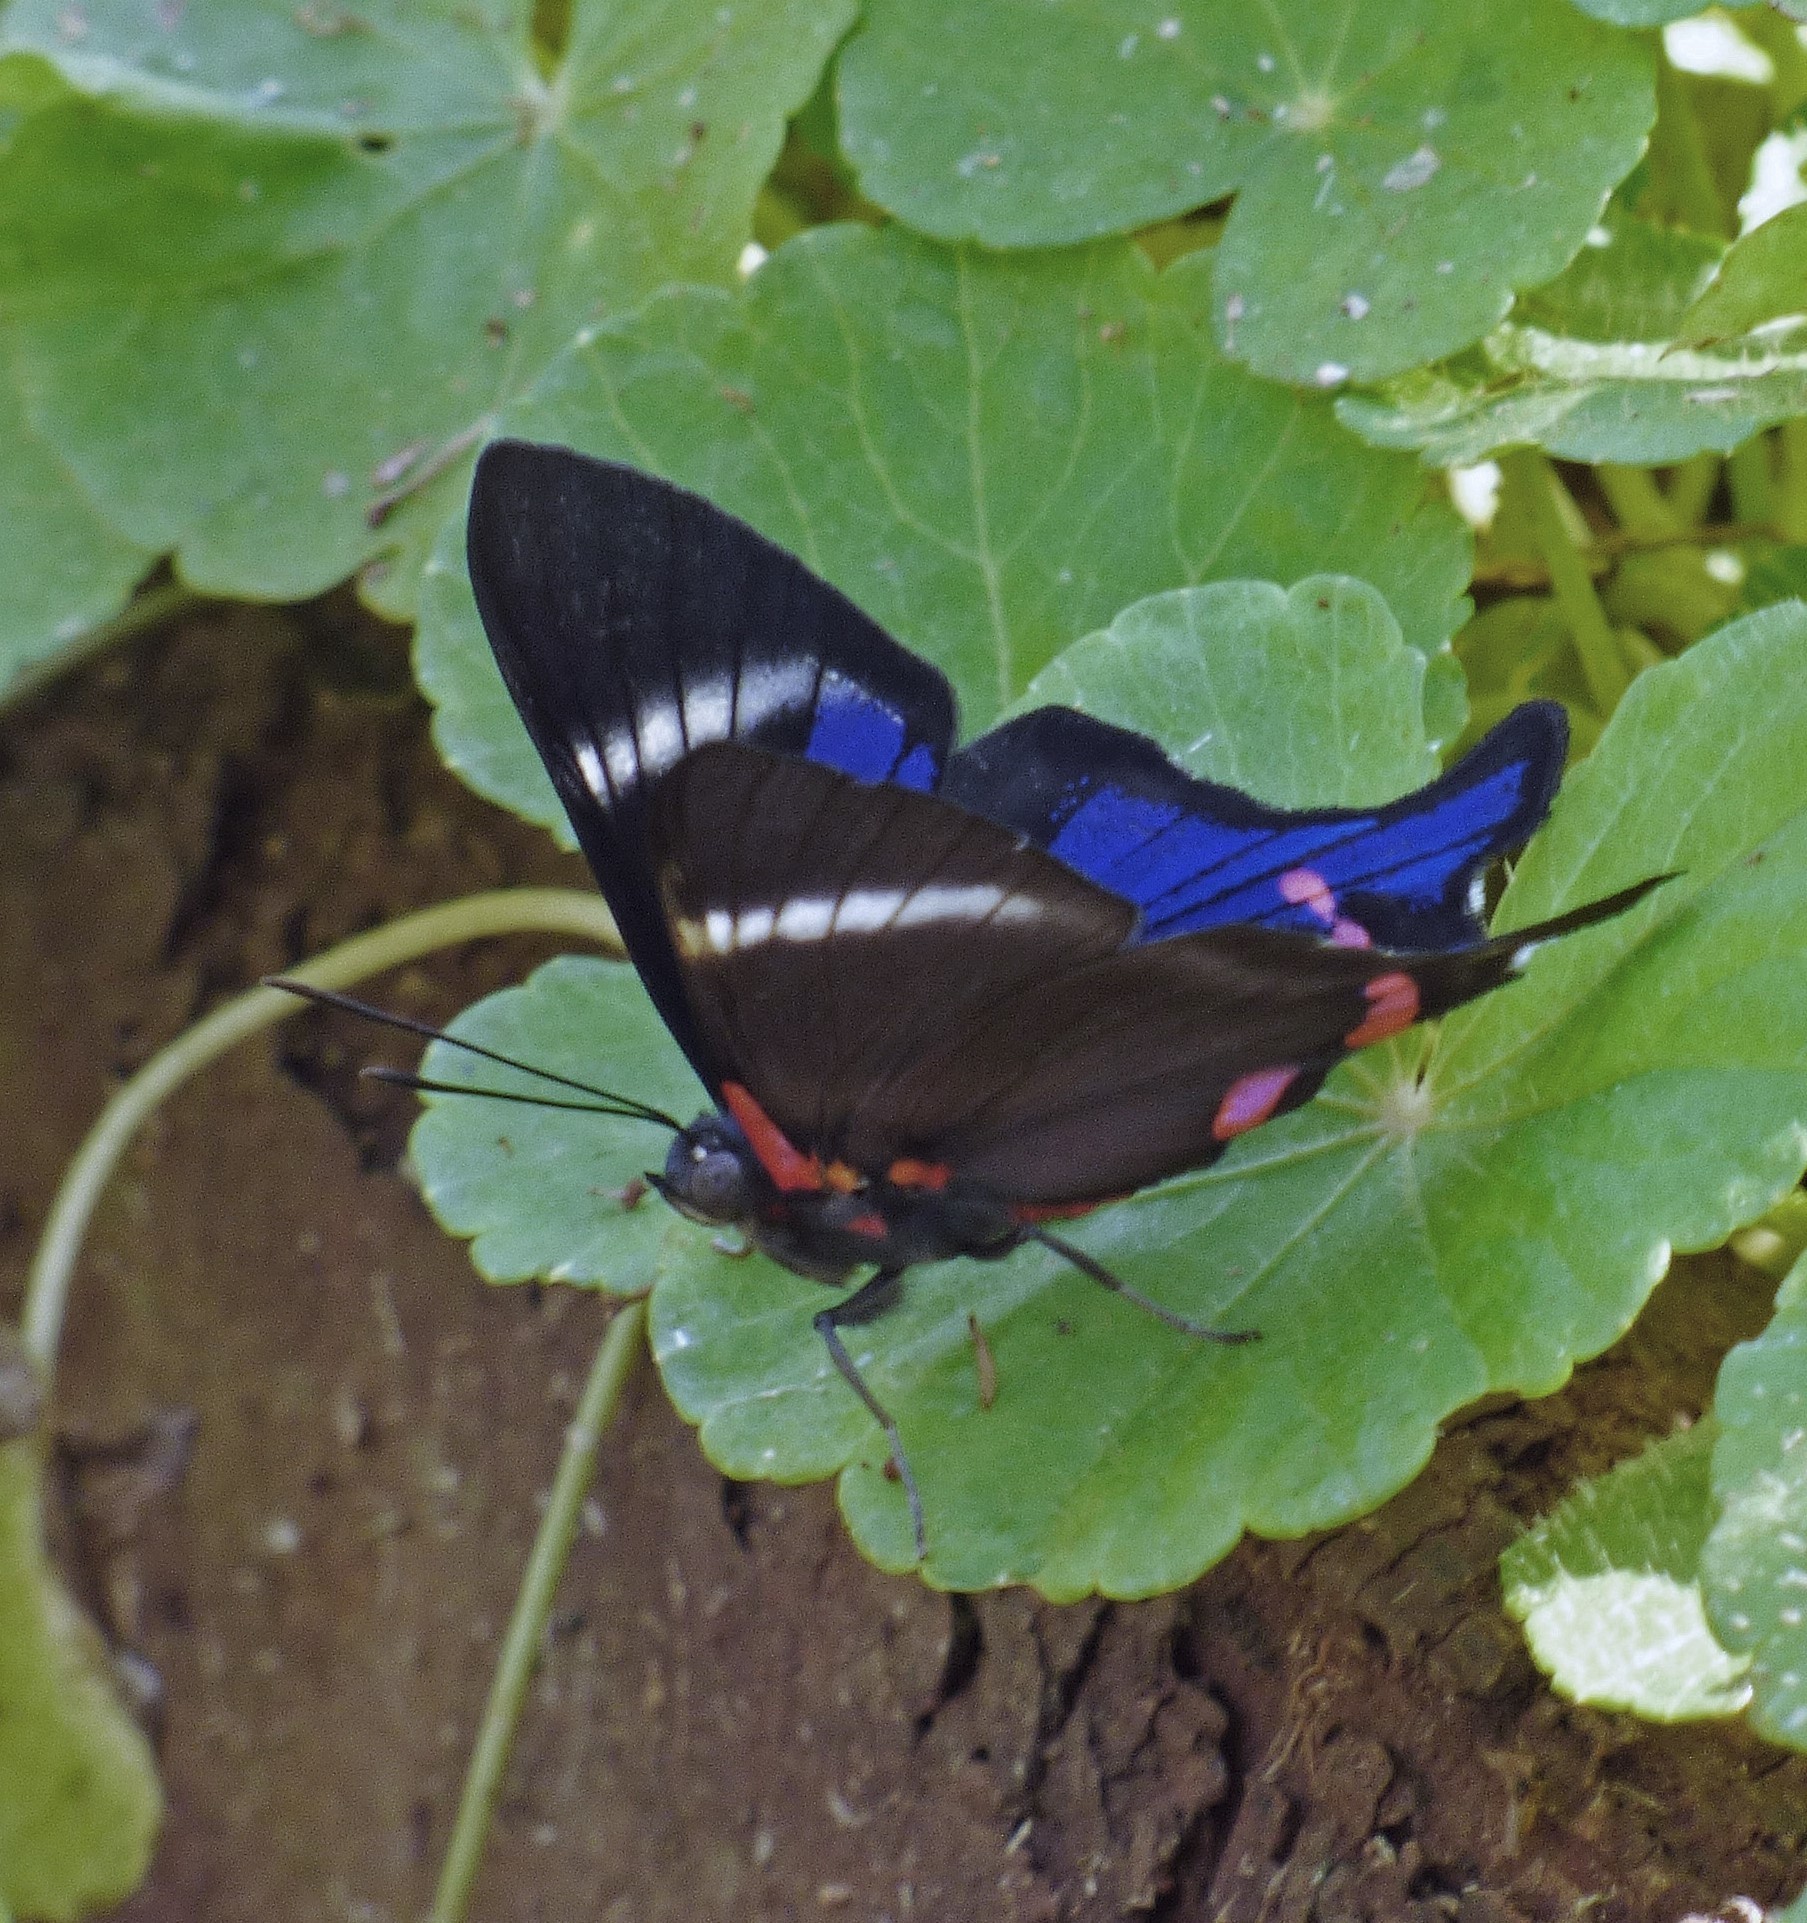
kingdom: Animalia
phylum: Arthropoda
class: Insecta
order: Lepidoptera
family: Riodinidae
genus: Rhetus
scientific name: Rhetus periander
